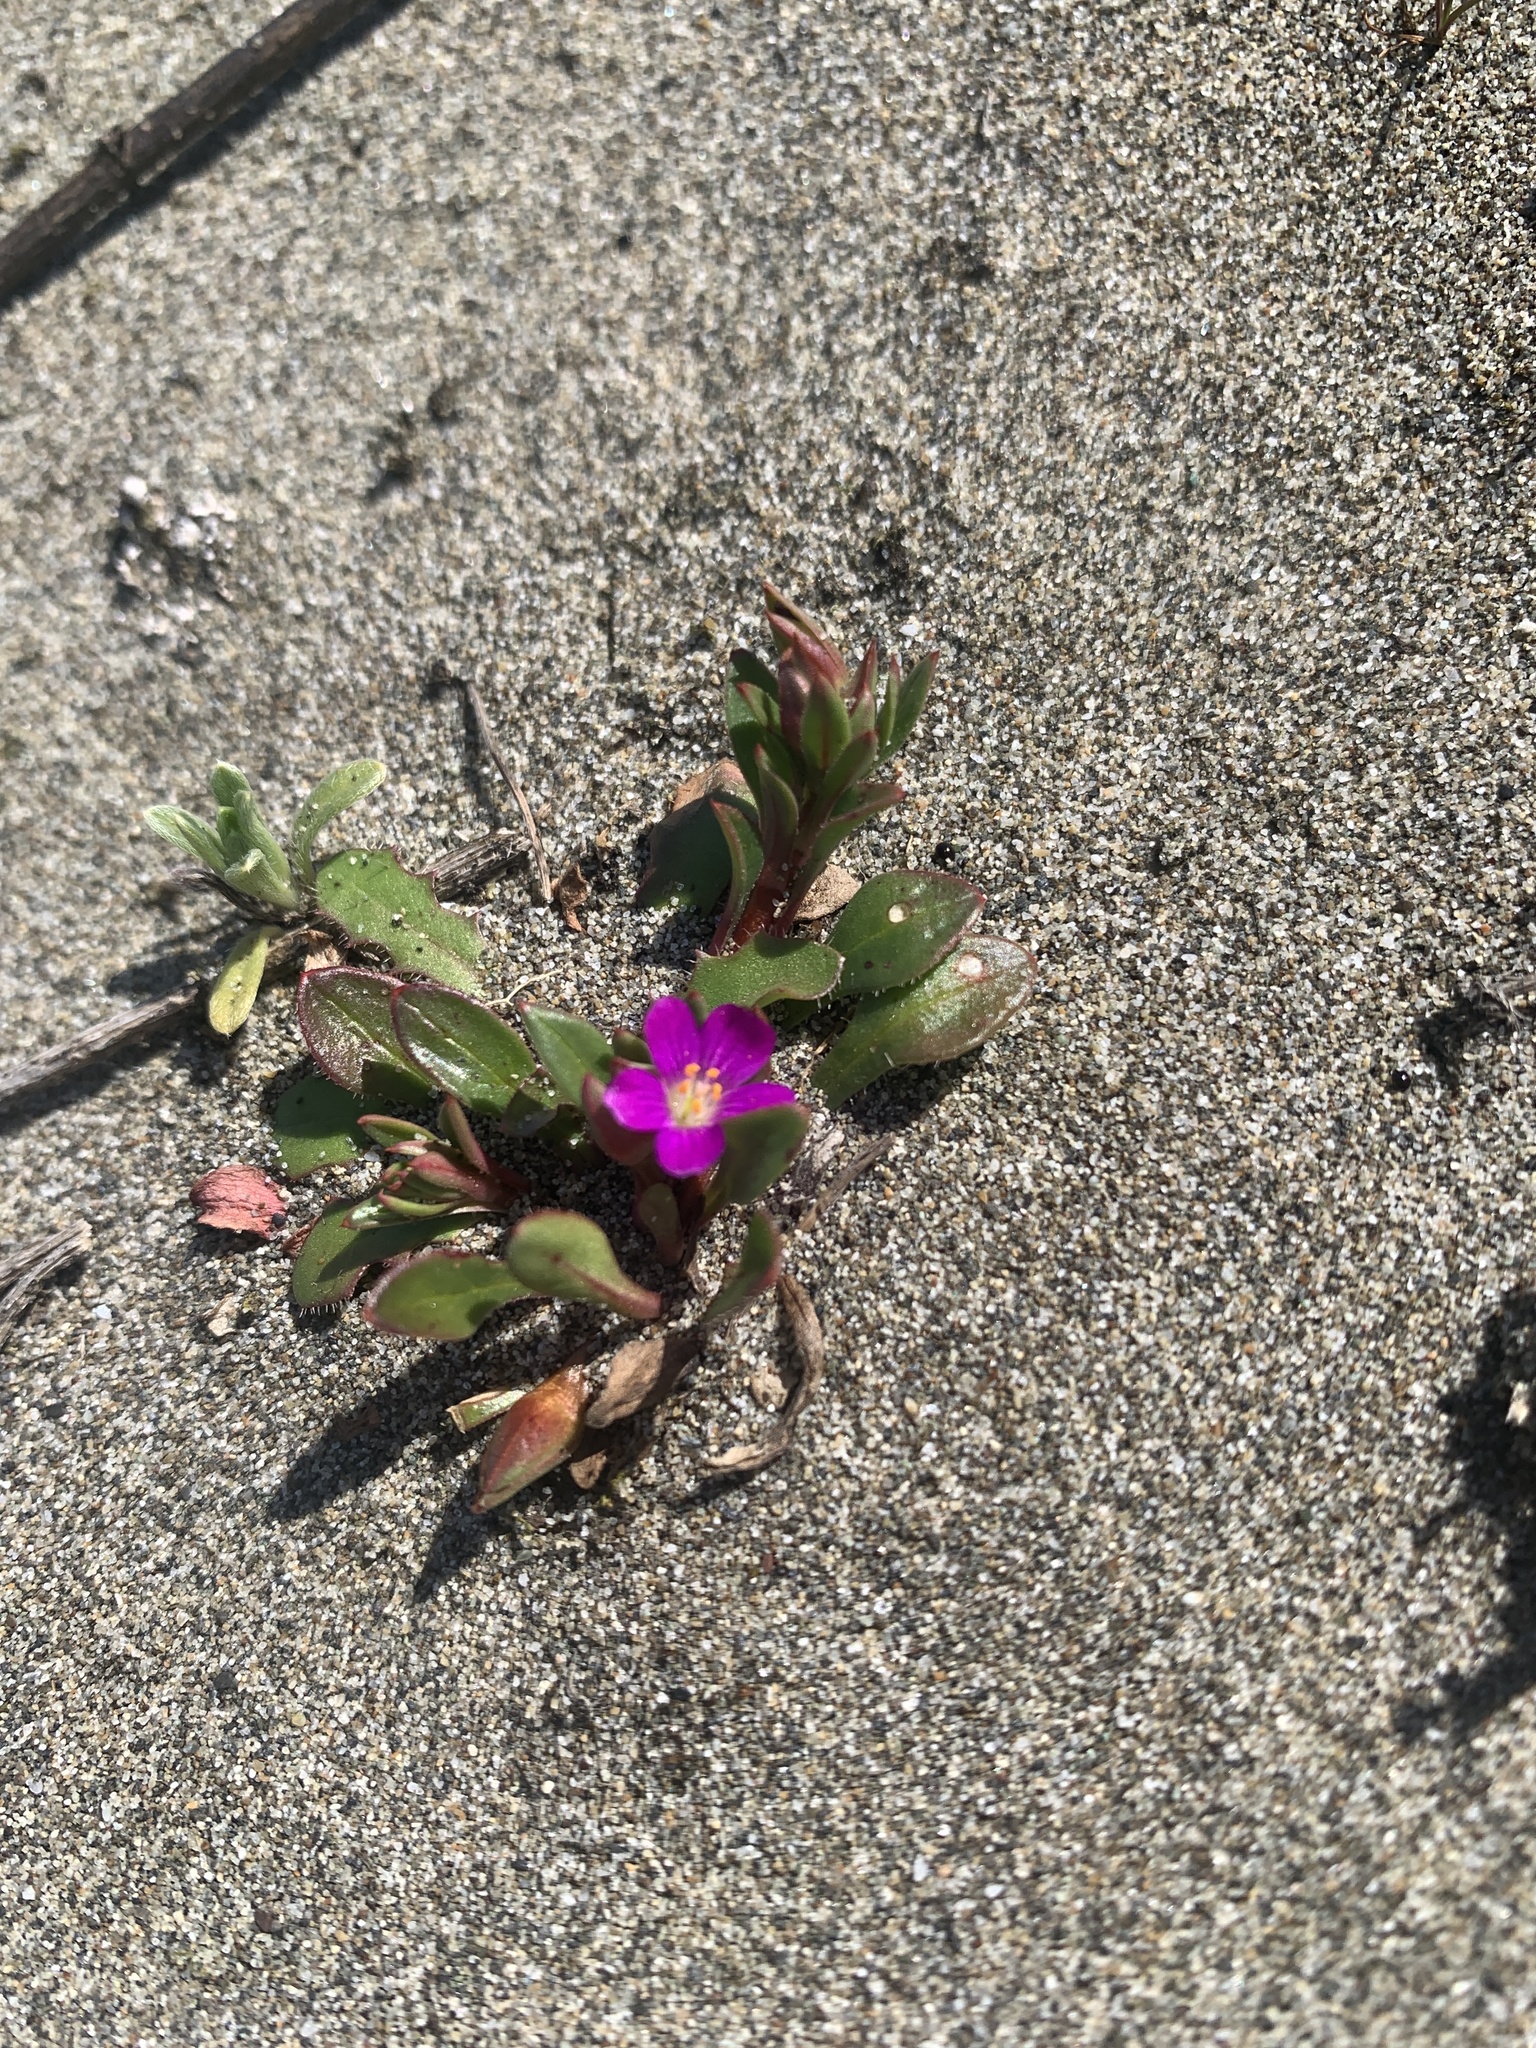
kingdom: Plantae
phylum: Tracheophyta
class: Magnoliopsida
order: Caryophyllales
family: Montiaceae
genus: Calandrinia
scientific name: Calandrinia menziesii
